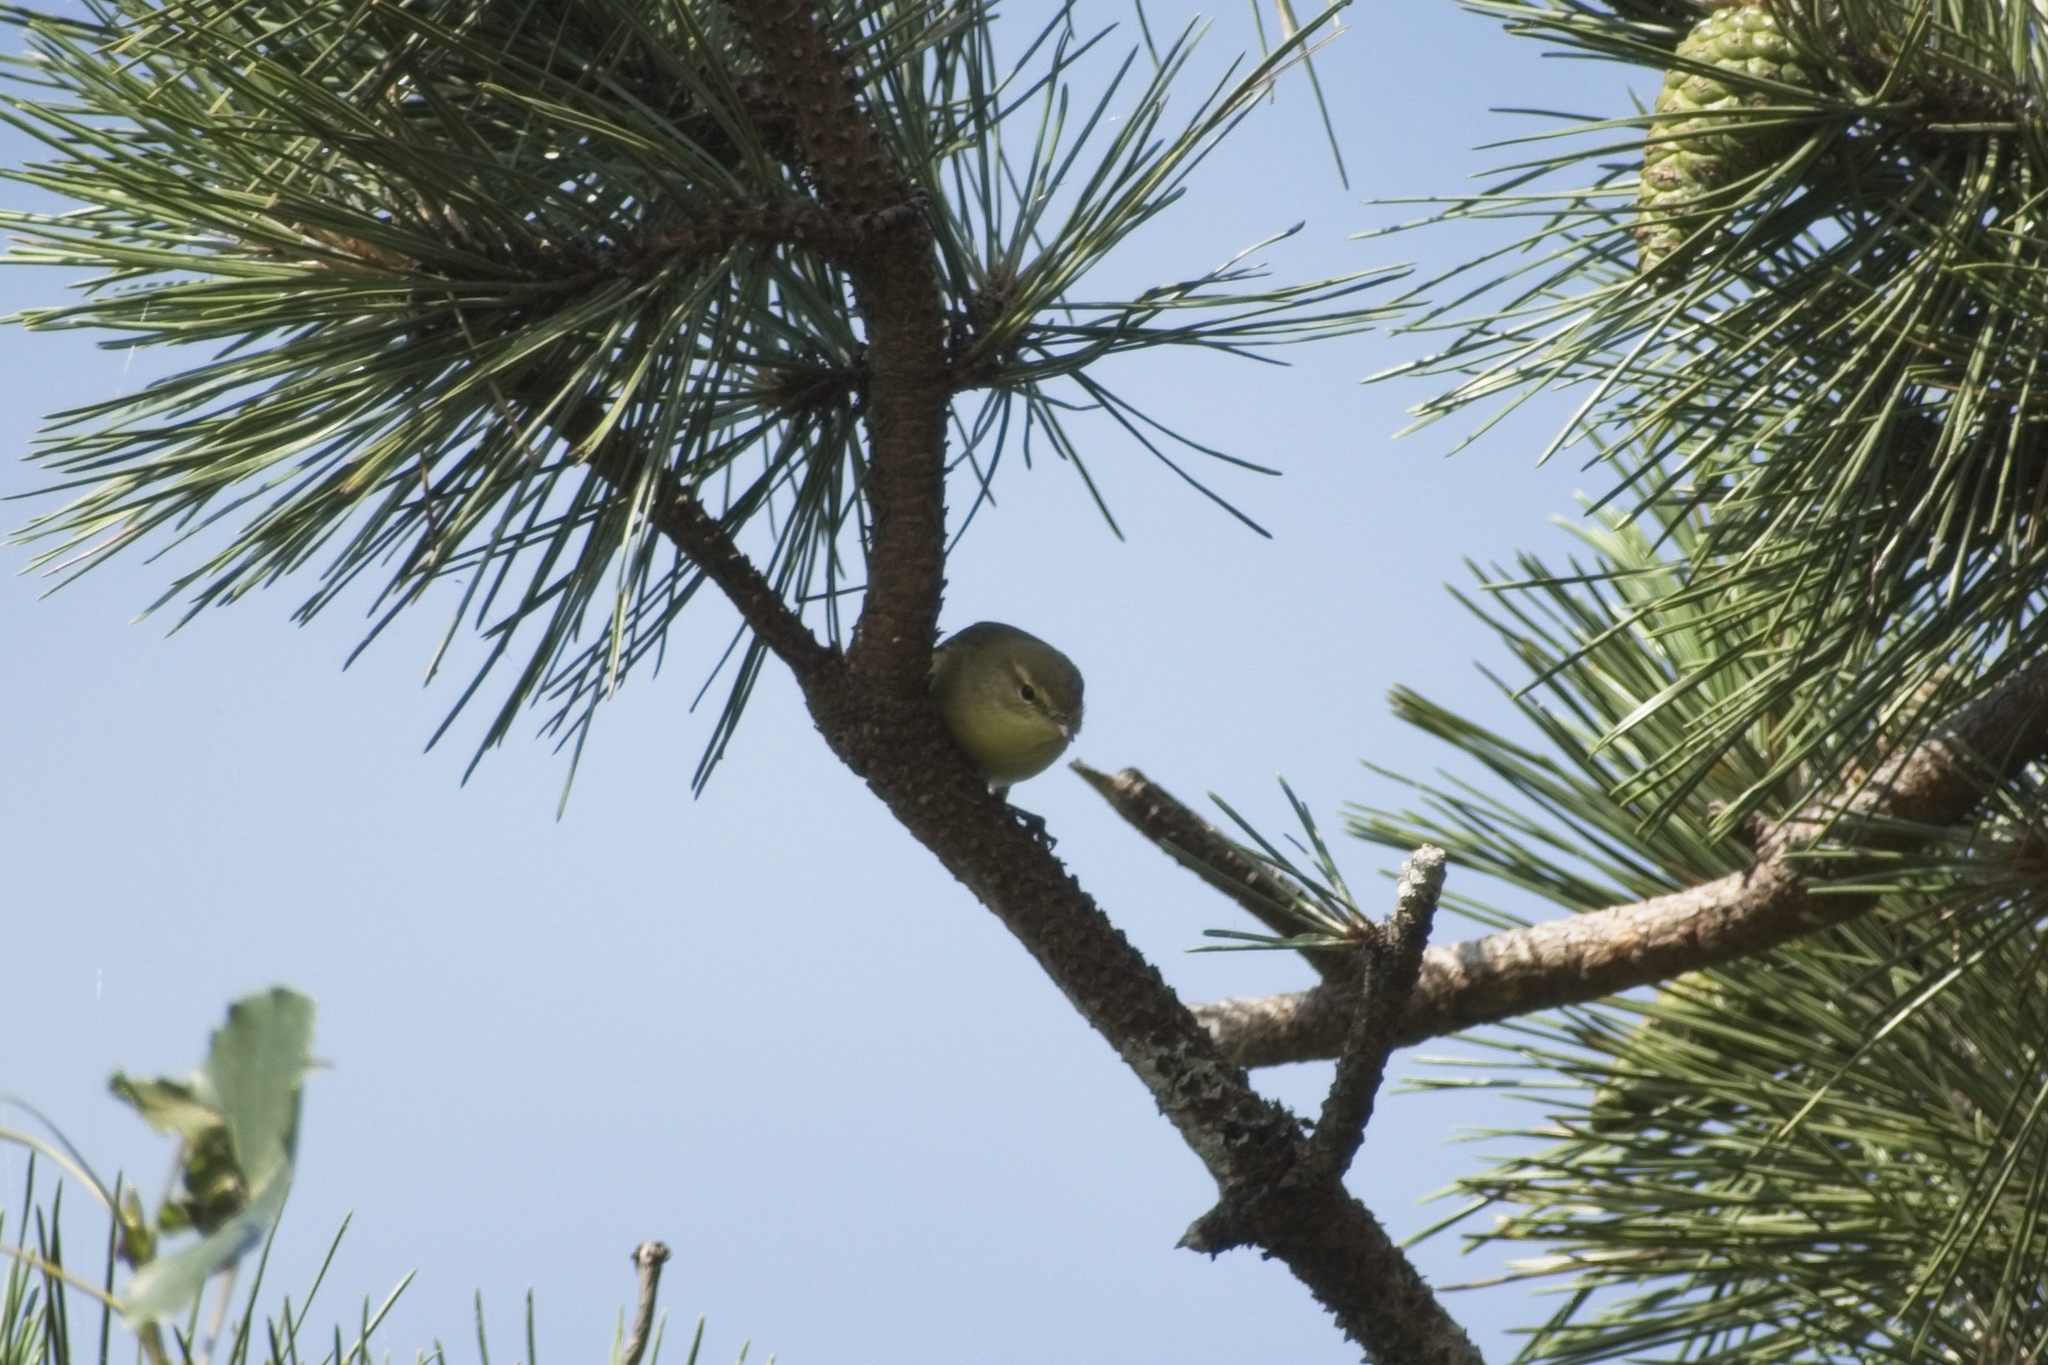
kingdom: Animalia
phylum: Chordata
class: Aves
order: Passeriformes
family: Phylloscopidae
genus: Phylloscopus
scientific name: Phylloscopus trochilus
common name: Willow warbler
